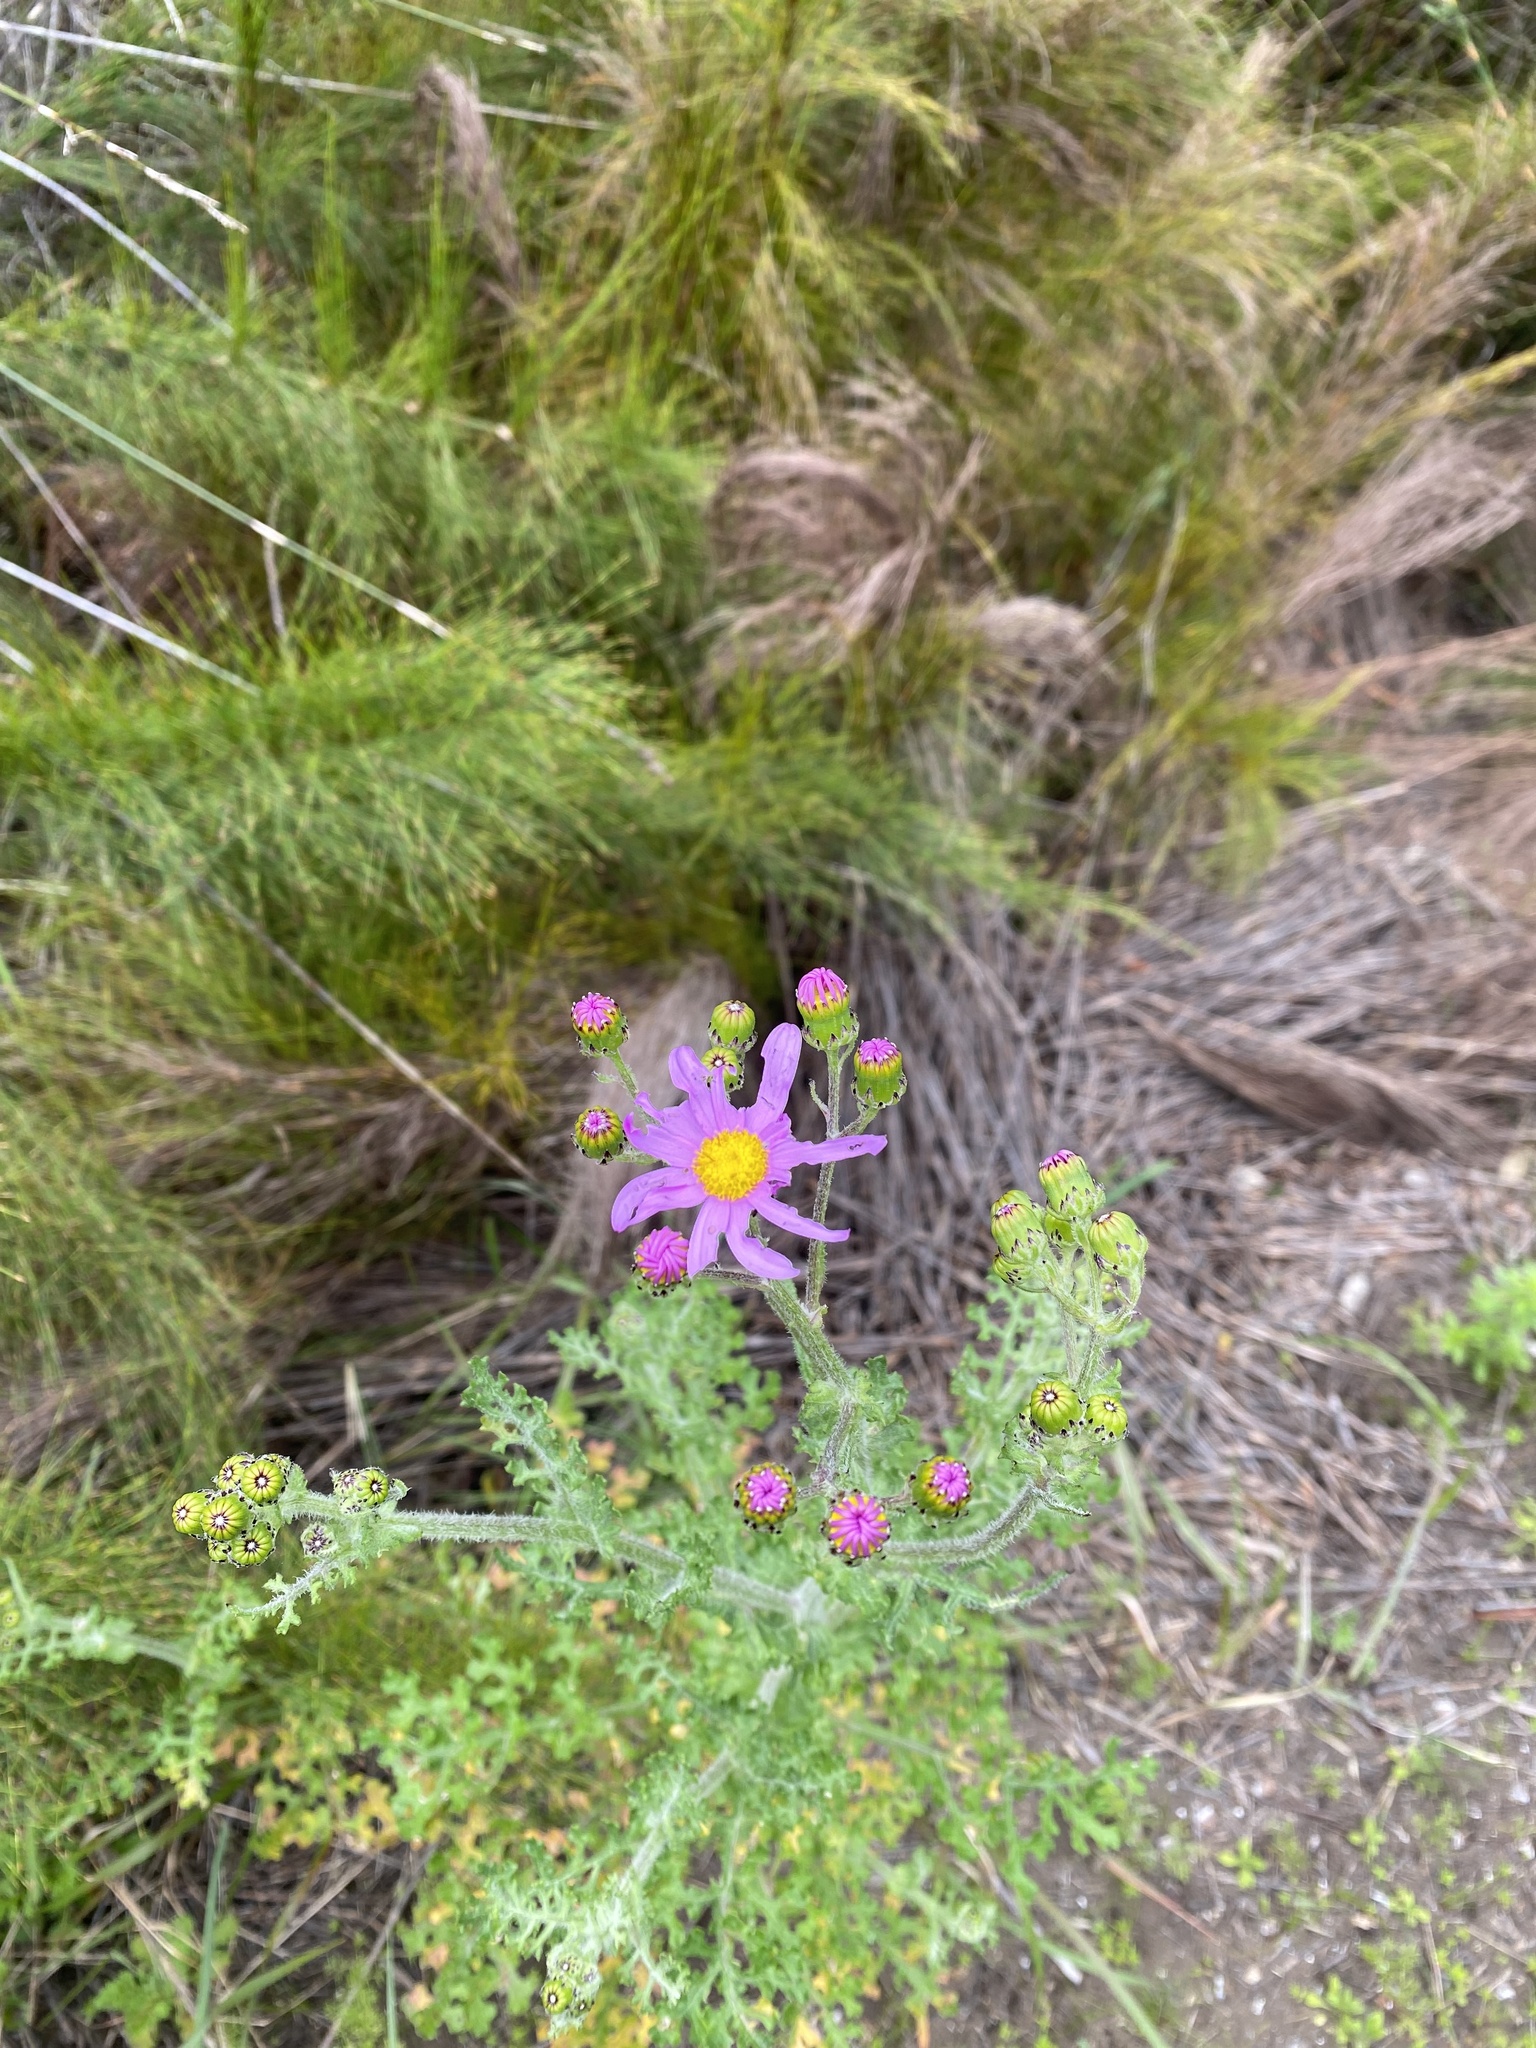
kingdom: Plantae
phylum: Tracheophyta
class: Magnoliopsida
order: Asterales
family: Asteraceae
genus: Senecio
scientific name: Senecio elegans
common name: Purple groundsel
